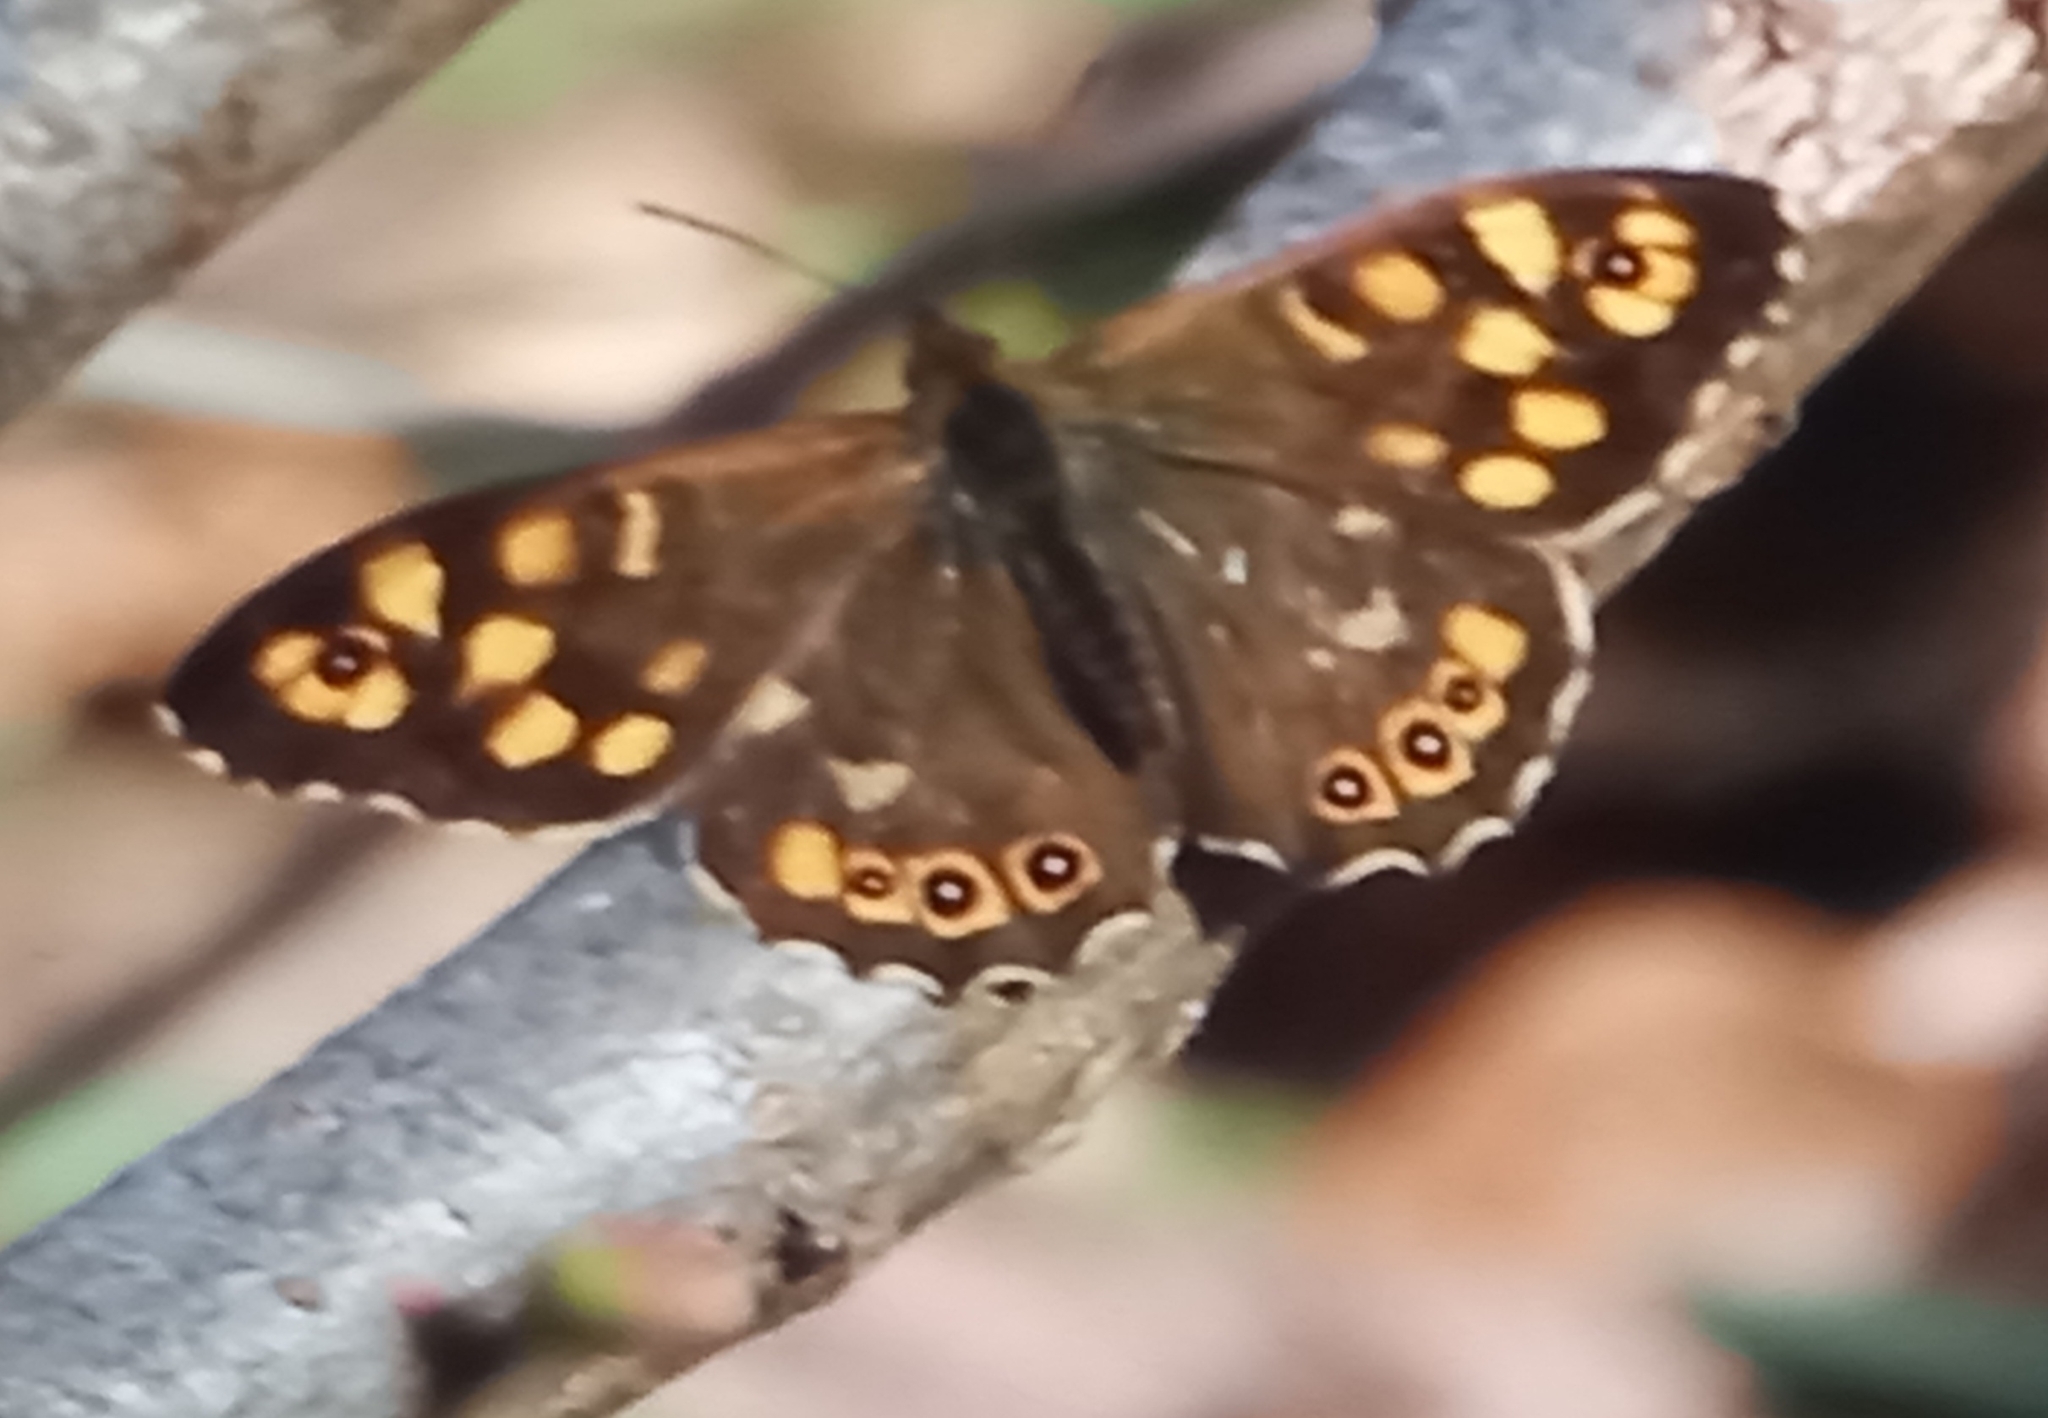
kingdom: Animalia
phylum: Arthropoda
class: Insecta
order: Lepidoptera
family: Nymphalidae
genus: Pararge
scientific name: Pararge aegeria
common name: Speckled wood
